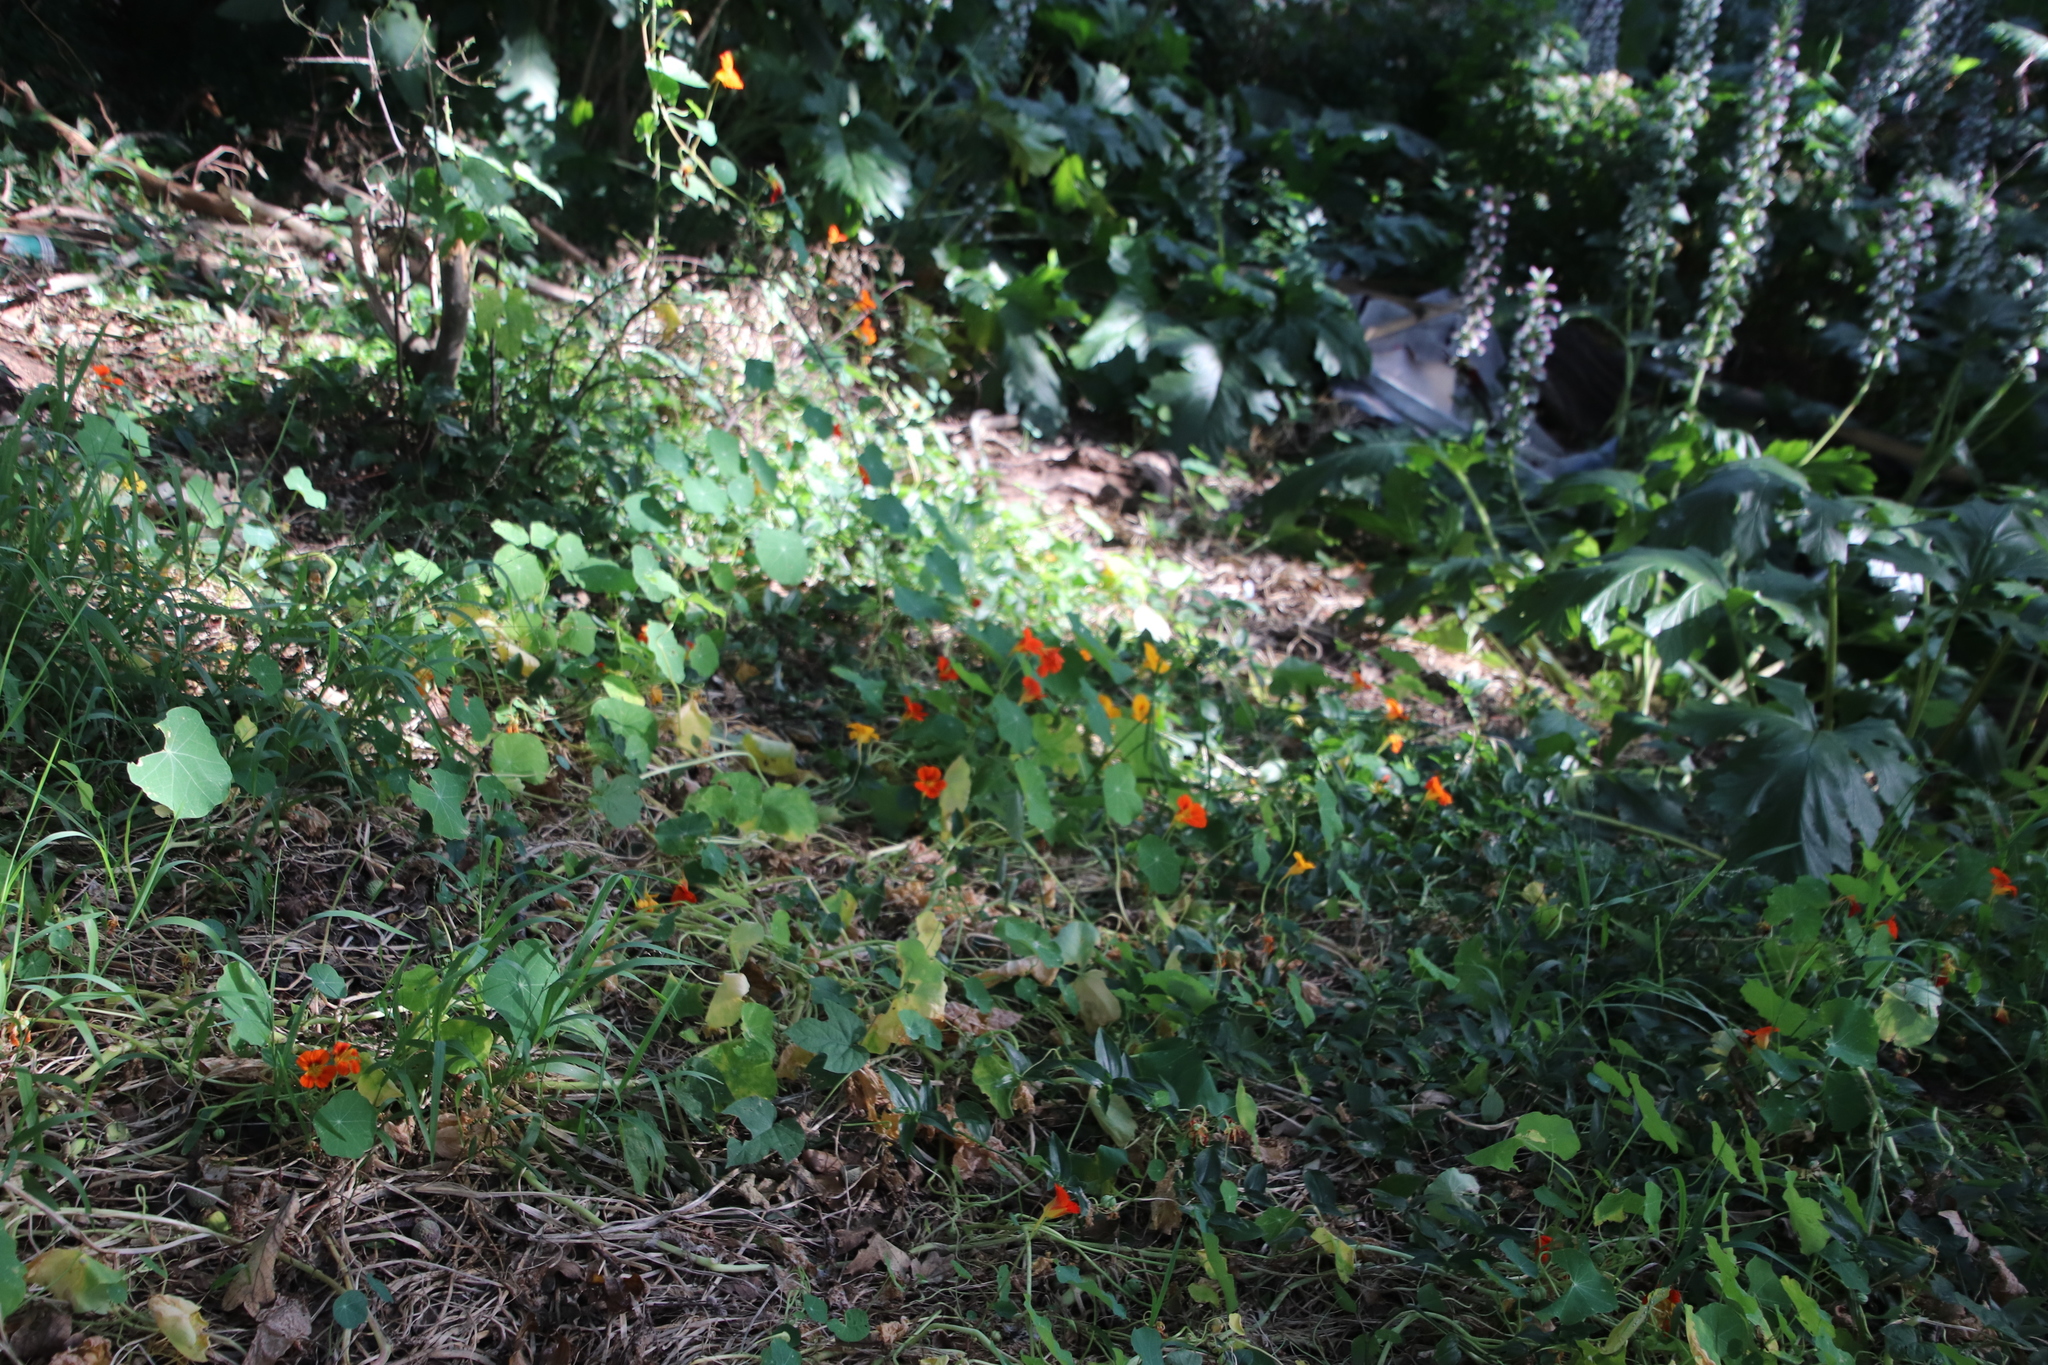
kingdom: Plantae
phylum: Tracheophyta
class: Magnoliopsida
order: Brassicales
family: Tropaeolaceae
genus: Tropaeolum
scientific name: Tropaeolum majus
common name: Nasturtium
